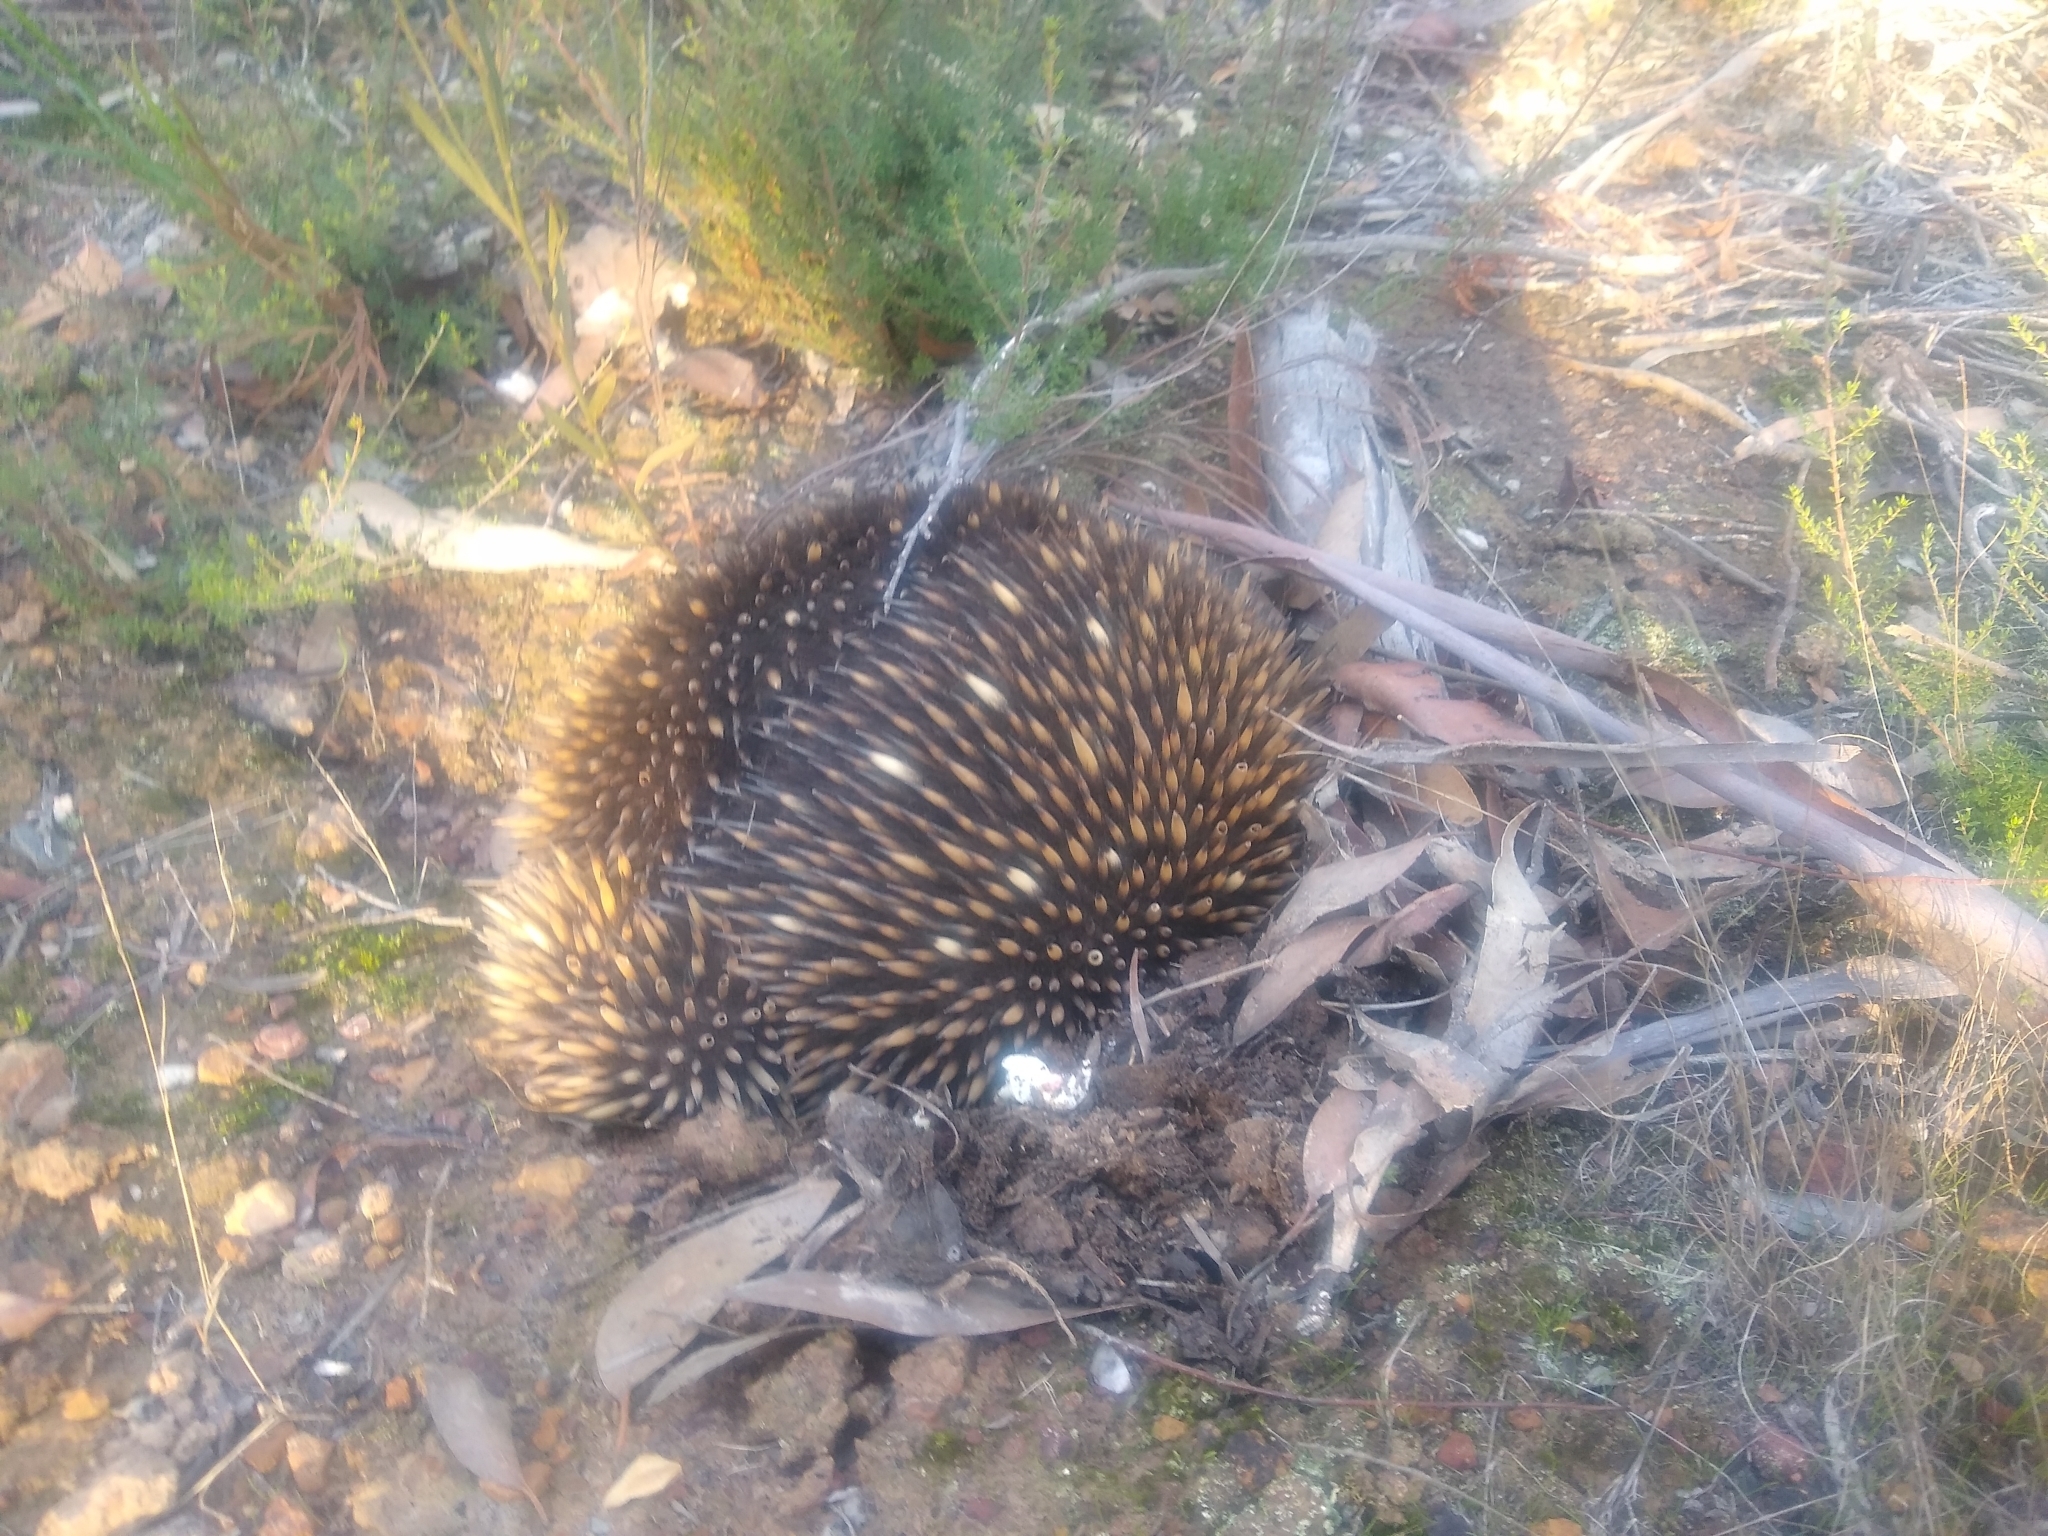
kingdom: Animalia
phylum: Chordata
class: Mammalia
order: Monotremata
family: Tachyglossidae
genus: Tachyglossus
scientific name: Tachyglossus aculeatus
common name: Short-beaked echidna
